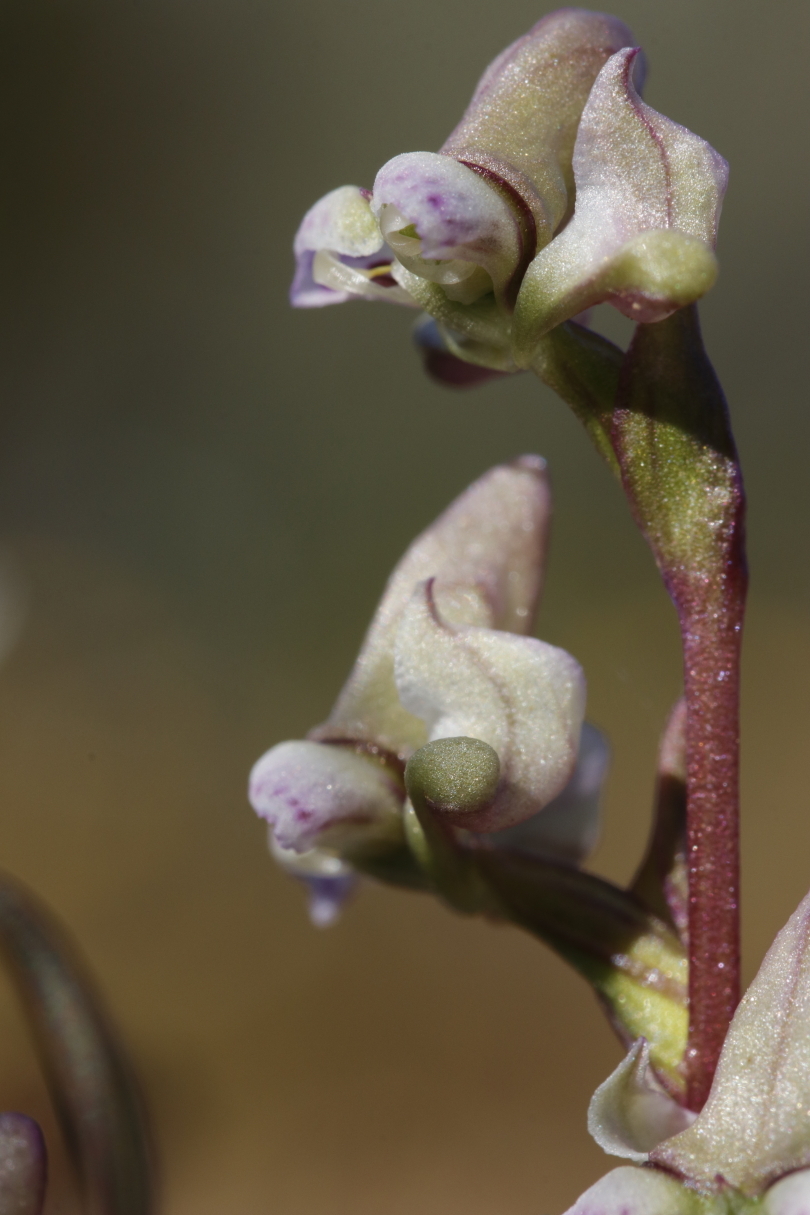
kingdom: Plantae
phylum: Tracheophyta
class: Liliopsida
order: Asparagales
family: Orchidaceae
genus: Disperis
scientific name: Disperis circumflexa
